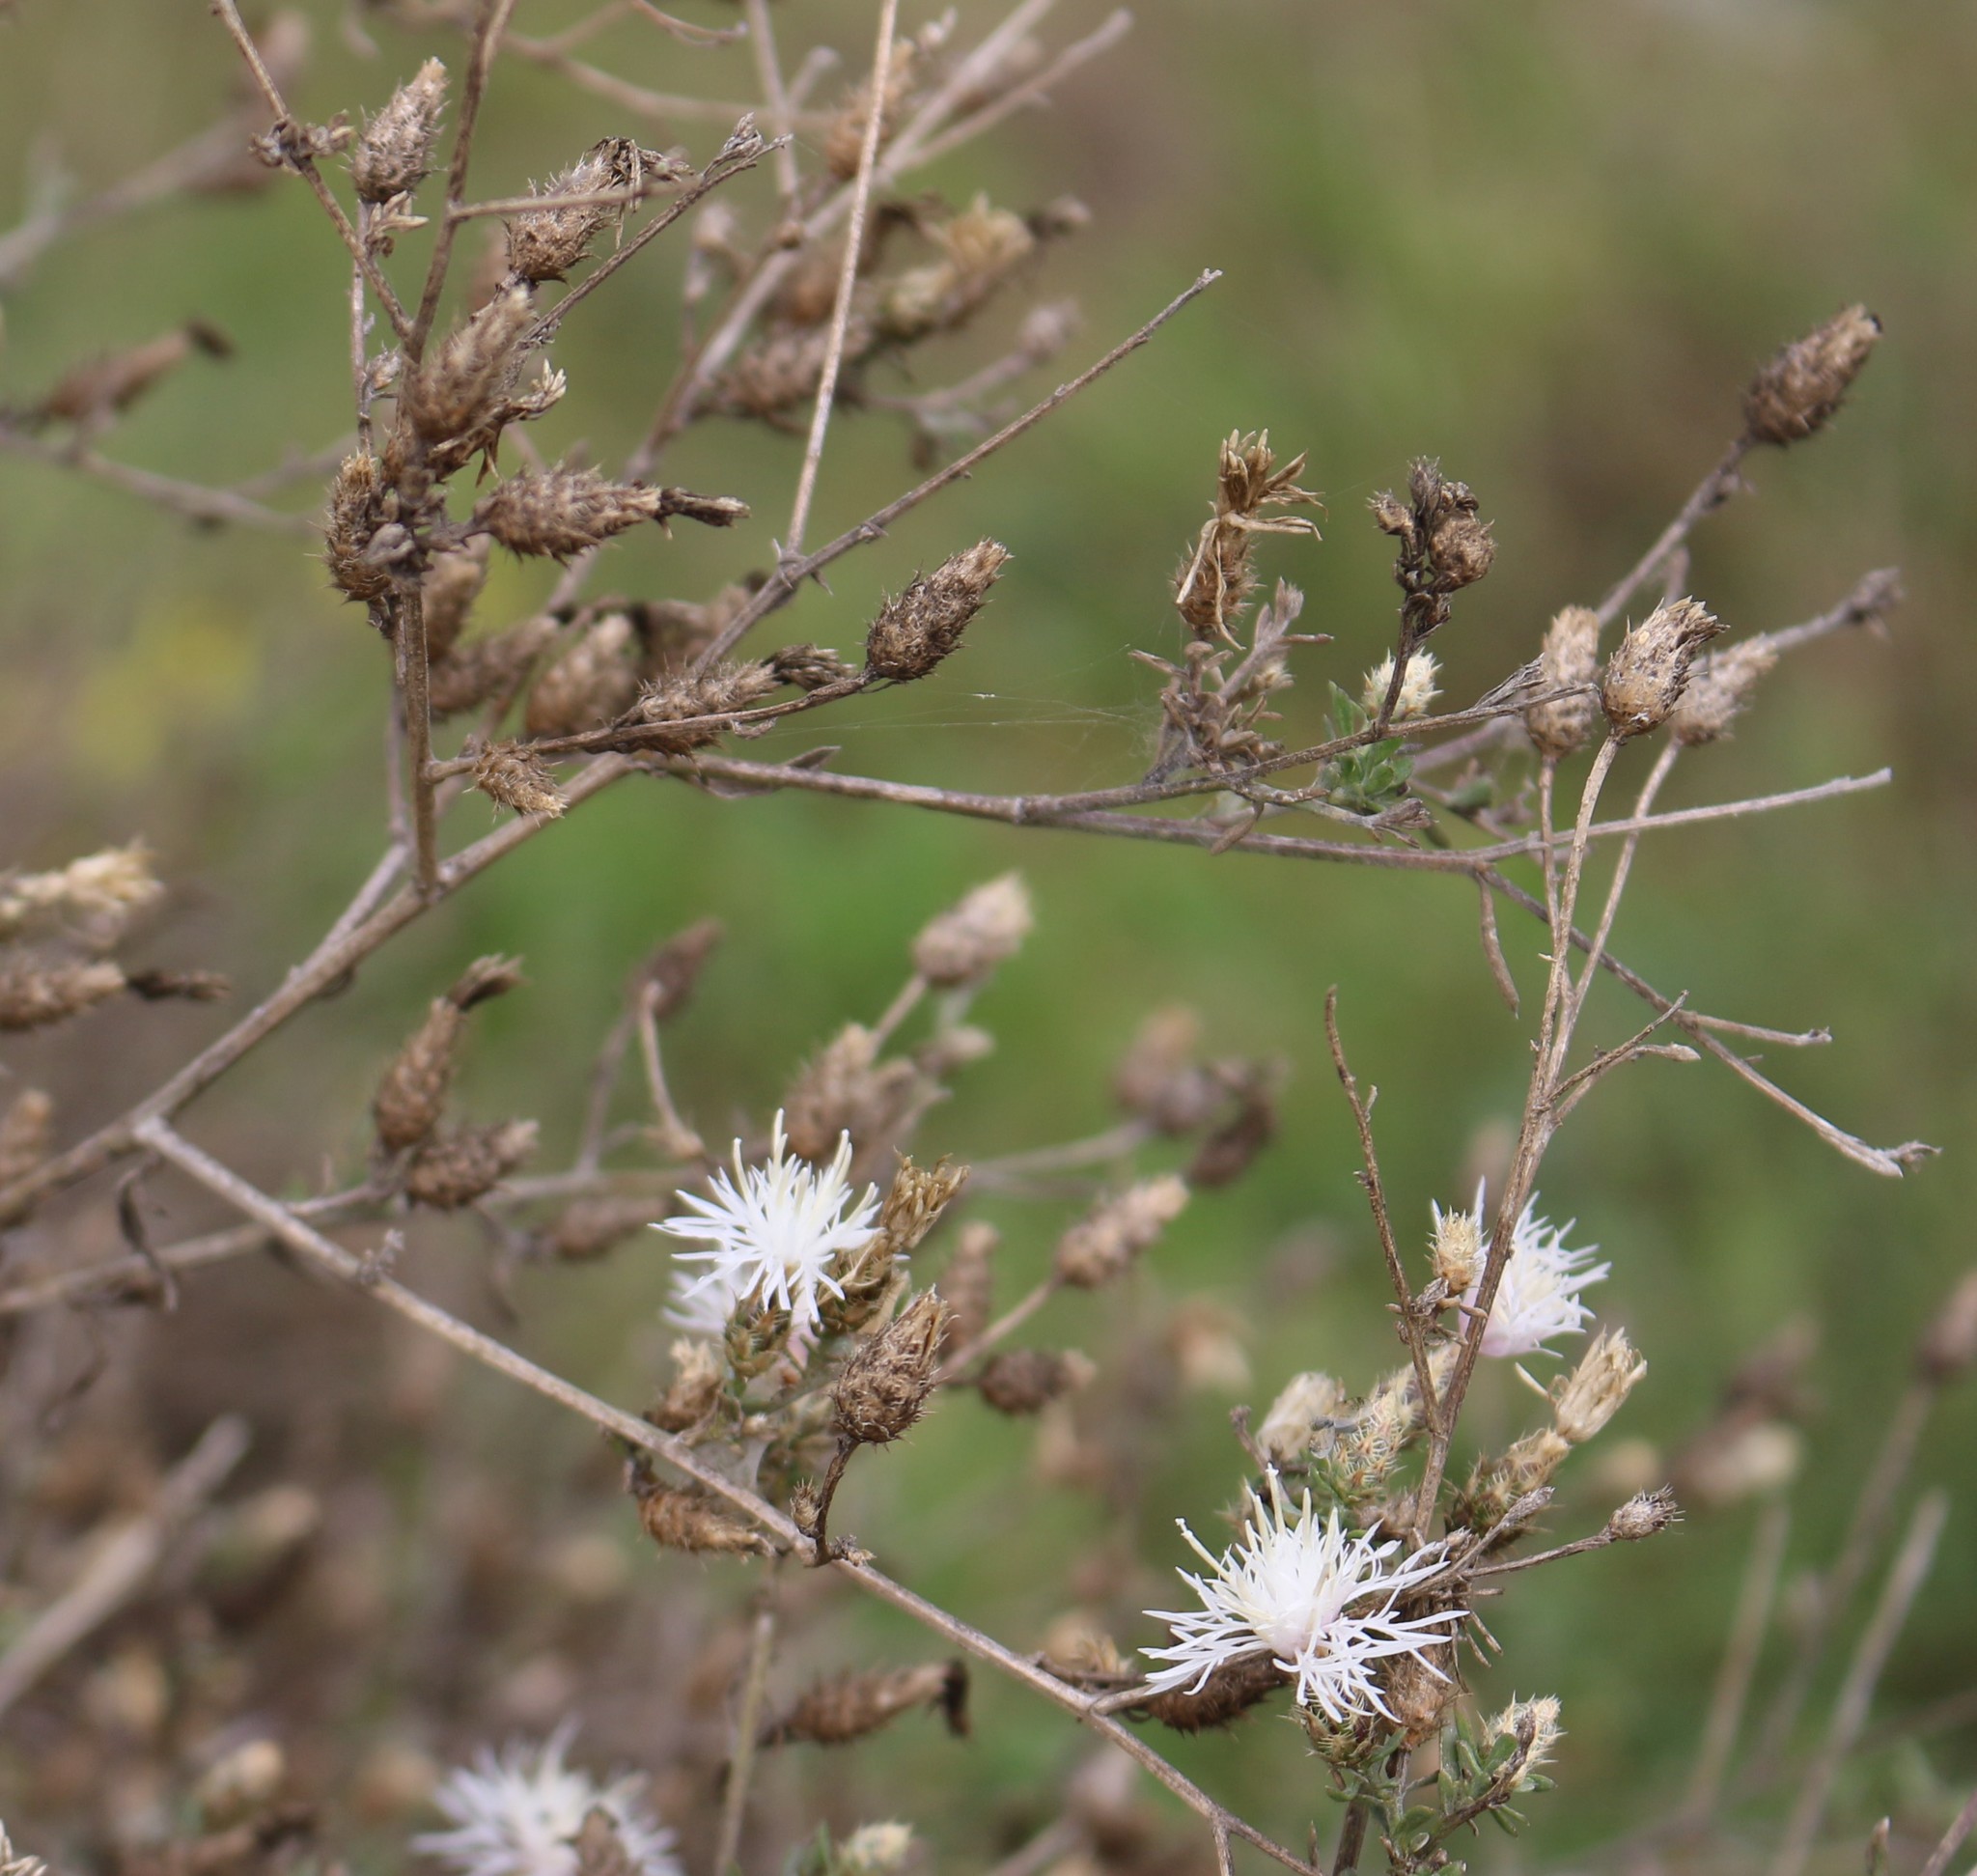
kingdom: Plantae
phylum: Tracheophyta
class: Magnoliopsida
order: Asterales
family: Asteraceae
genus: Centaurea
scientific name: Centaurea diffusa
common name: Diffuse knapweed
